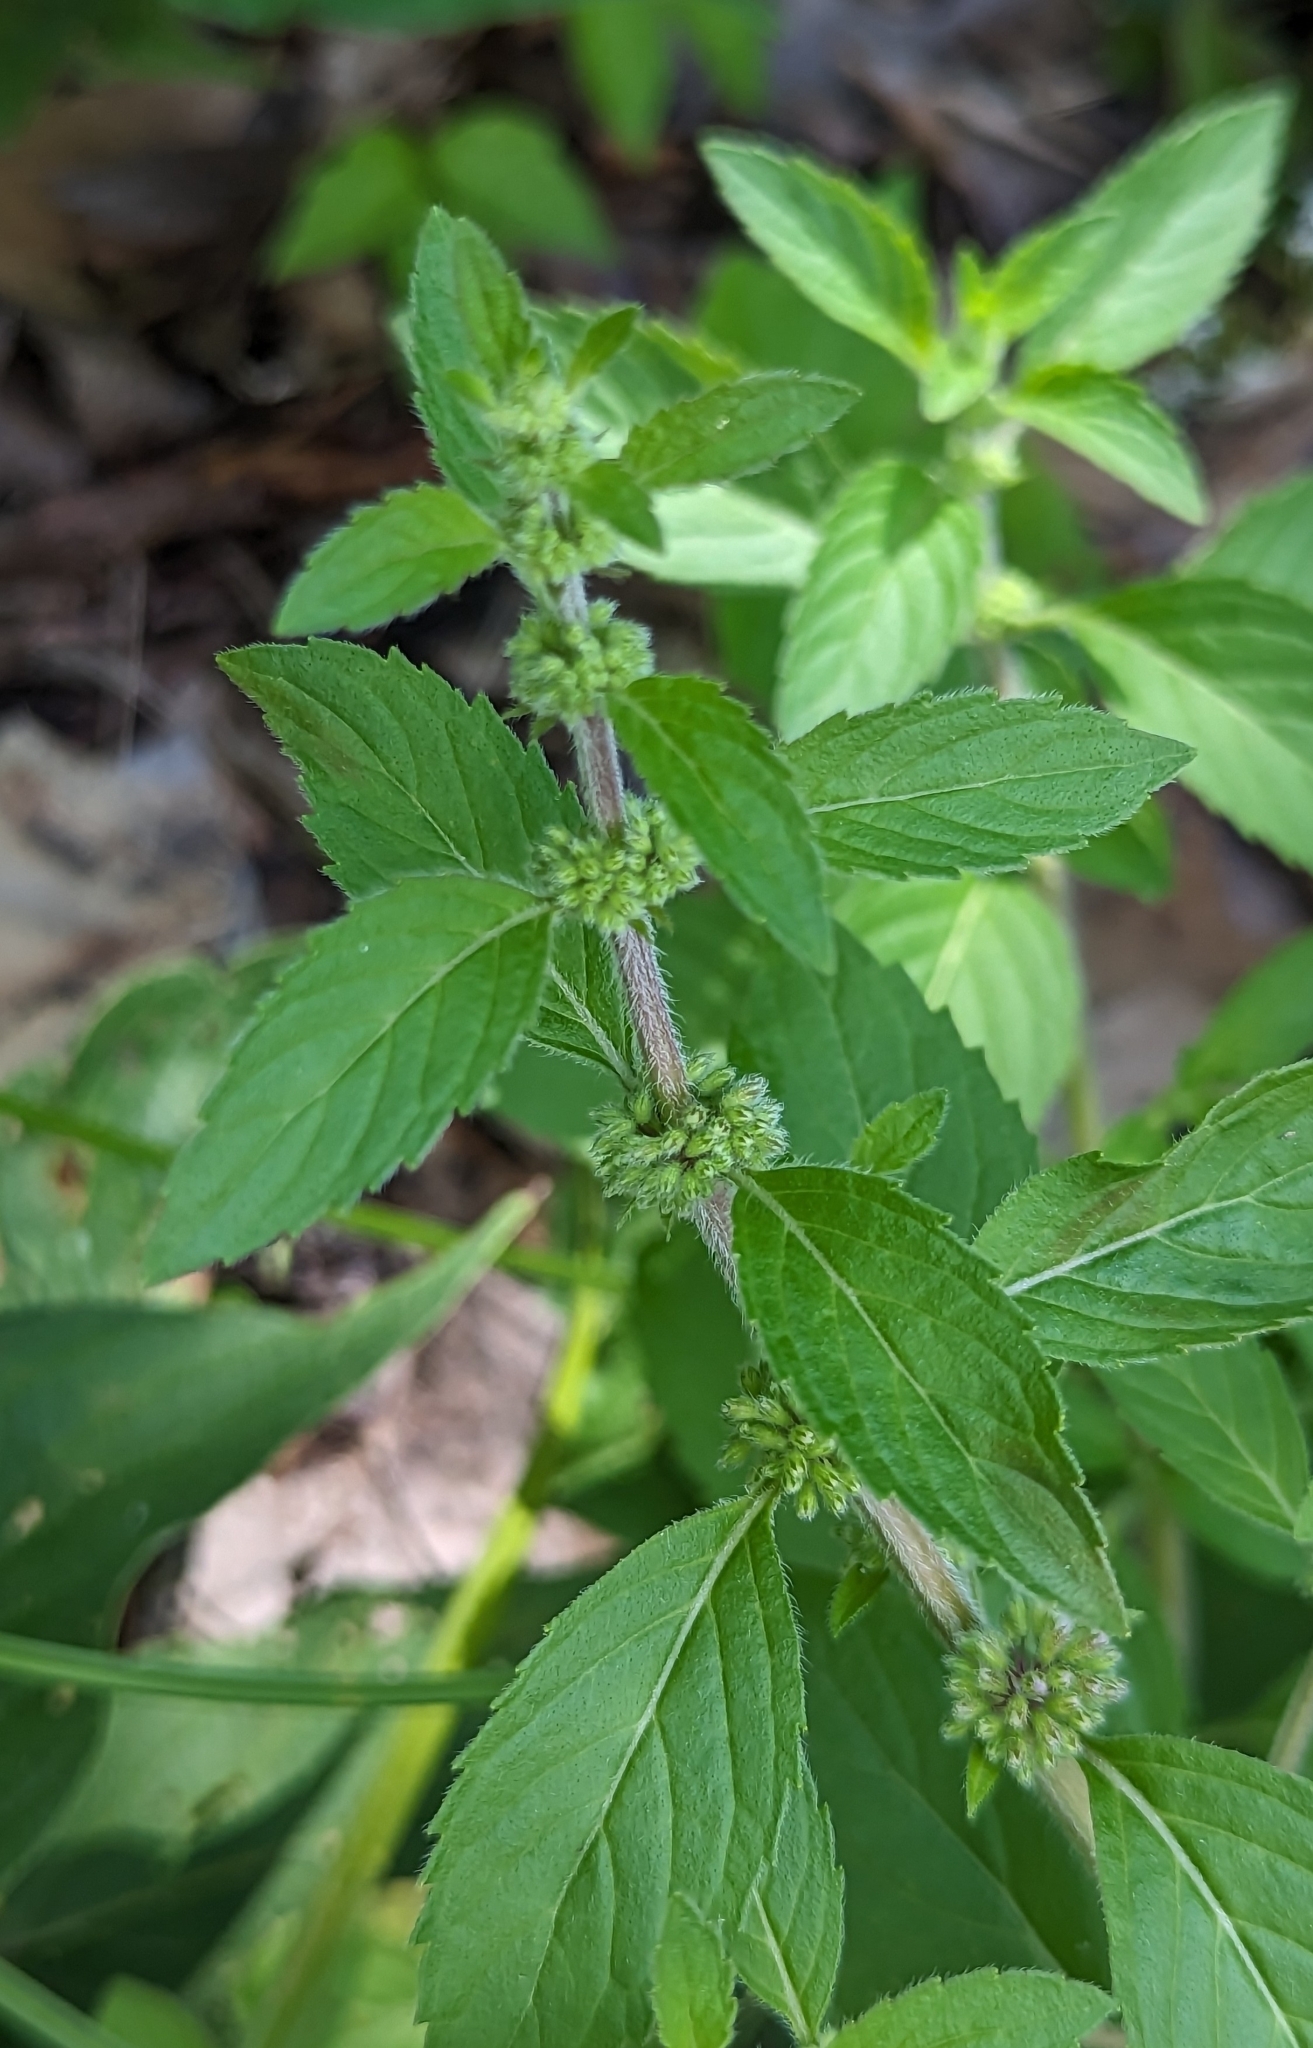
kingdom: Plantae
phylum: Tracheophyta
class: Magnoliopsida
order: Lamiales
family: Lamiaceae
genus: Mentha
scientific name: Mentha canadensis
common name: American corn mint
